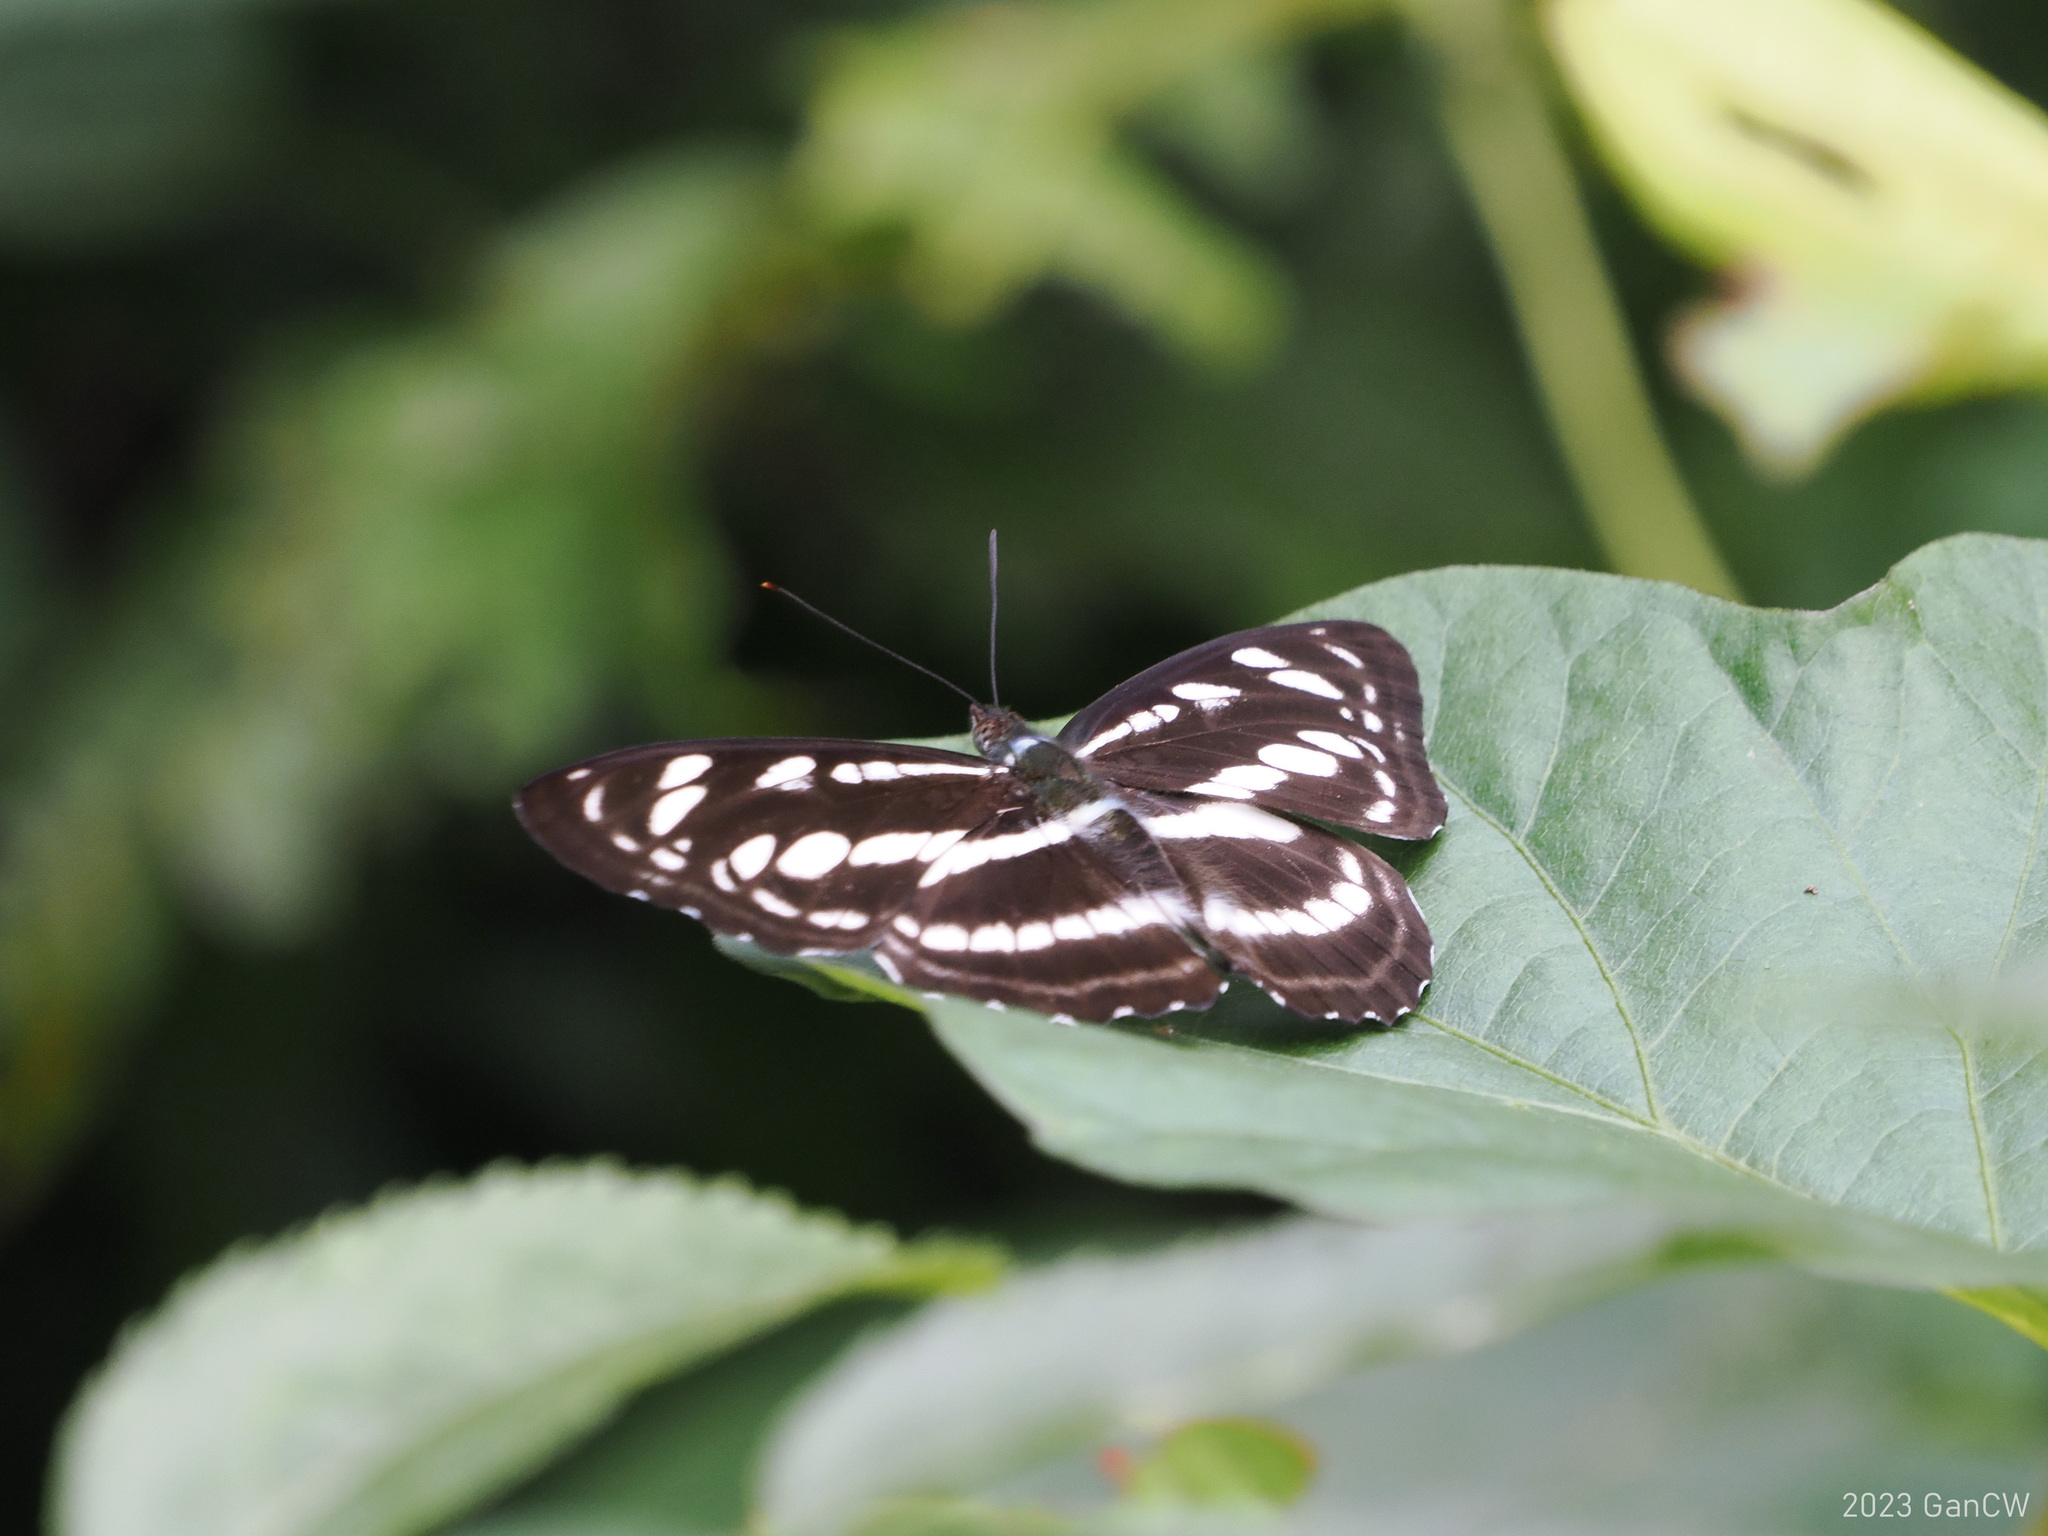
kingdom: Animalia
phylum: Arthropoda
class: Insecta
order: Lepidoptera
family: Nymphalidae
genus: Parathyma
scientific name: Parathyma selenophora
